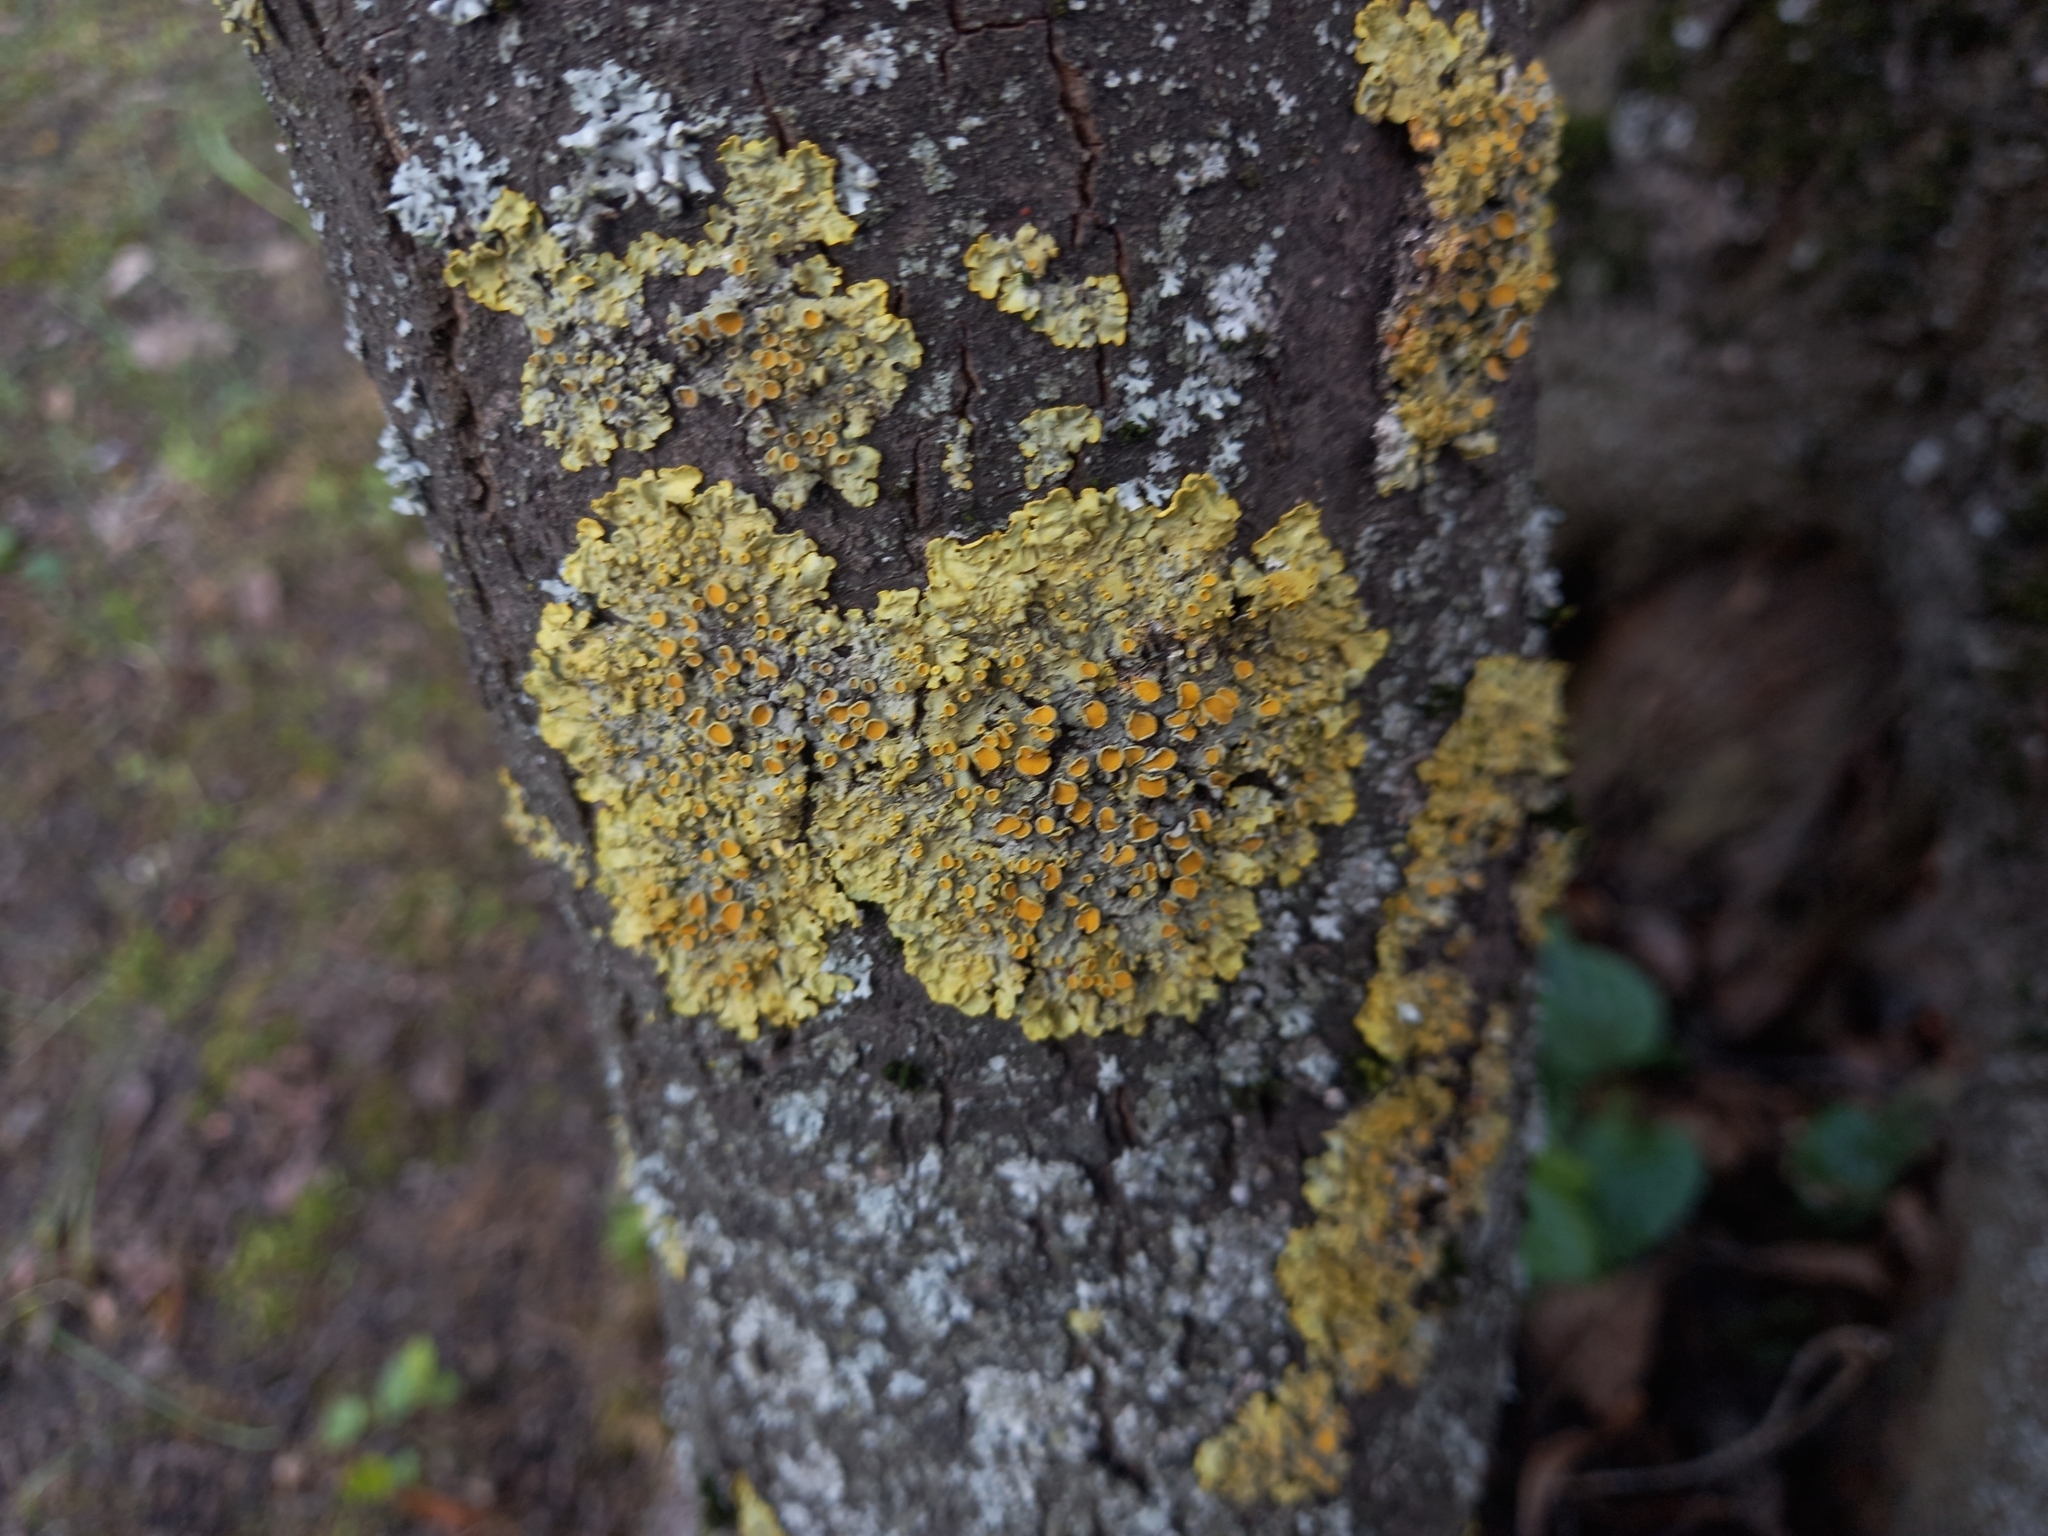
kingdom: Fungi
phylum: Ascomycota
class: Lecanoromycetes
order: Teloschistales
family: Teloschistaceae
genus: Xanthoria
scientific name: Xanthoria parietina
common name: Common orange lichen
